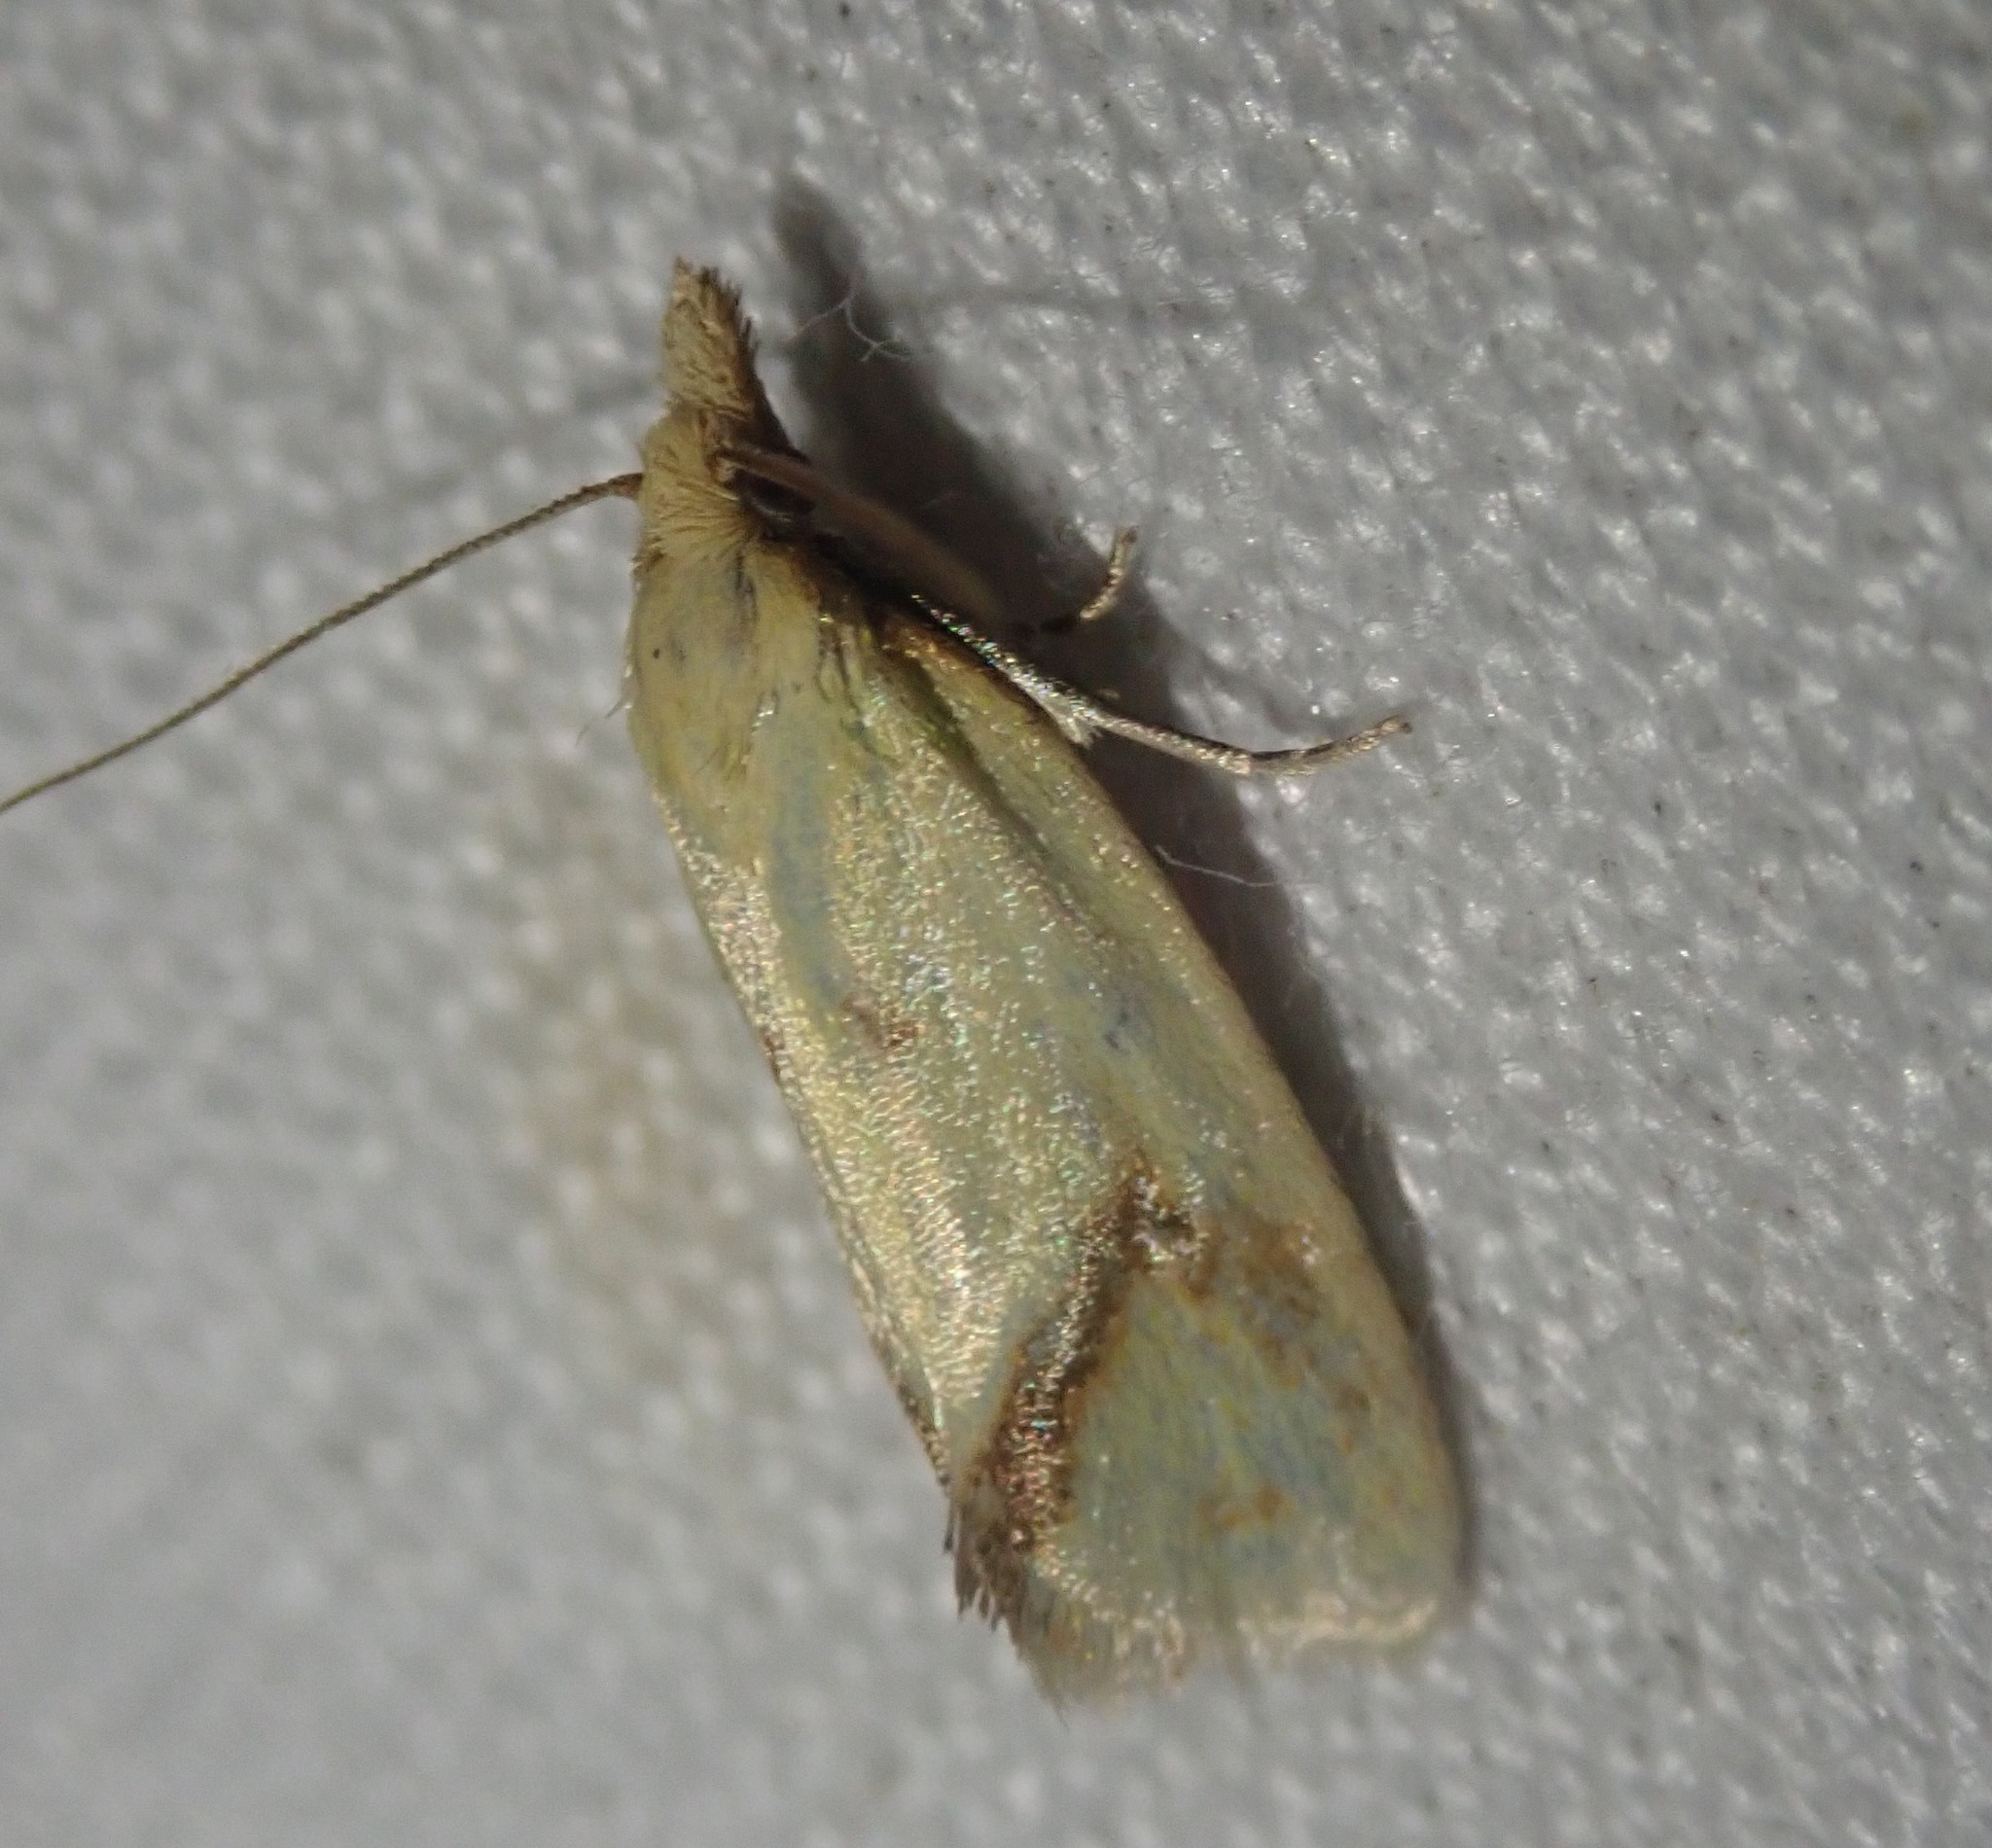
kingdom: Animalia
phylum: Arthropoda
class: Insecta
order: Lepidoptera
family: Tortricidae
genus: Agapeta
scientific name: Agapeta hamana
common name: Common yellow conch
